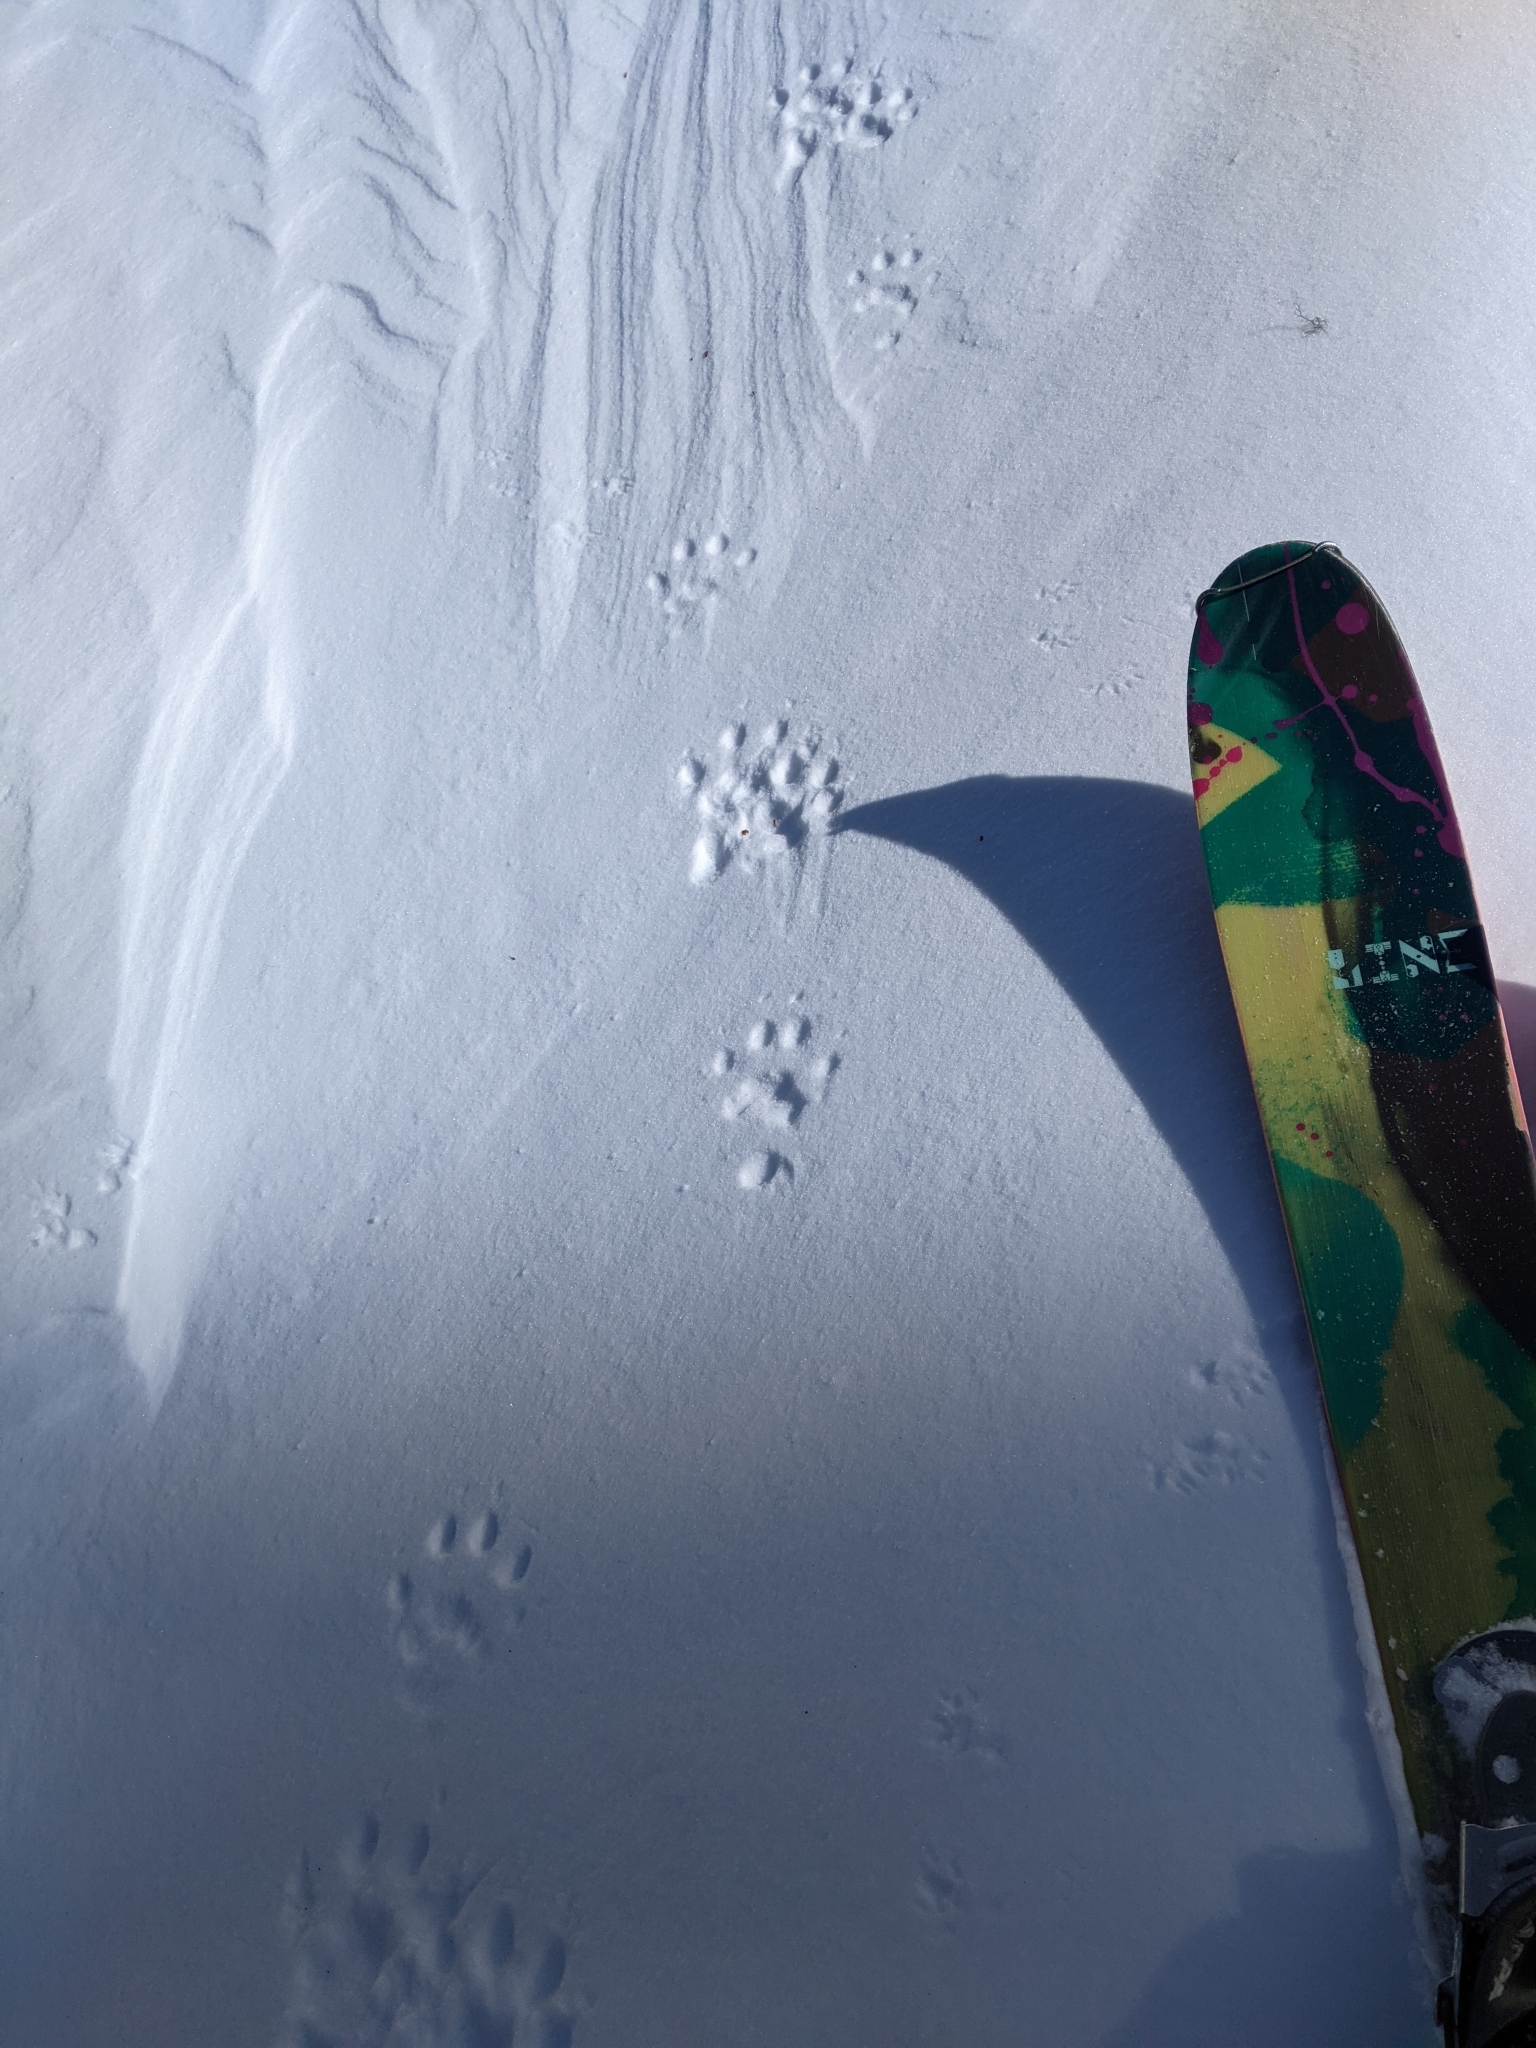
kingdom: Animalia
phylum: Chordata
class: Mammalia
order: Carnivora
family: Mustelidae
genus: Gulo
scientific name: Gulo gulo
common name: Wolverine
